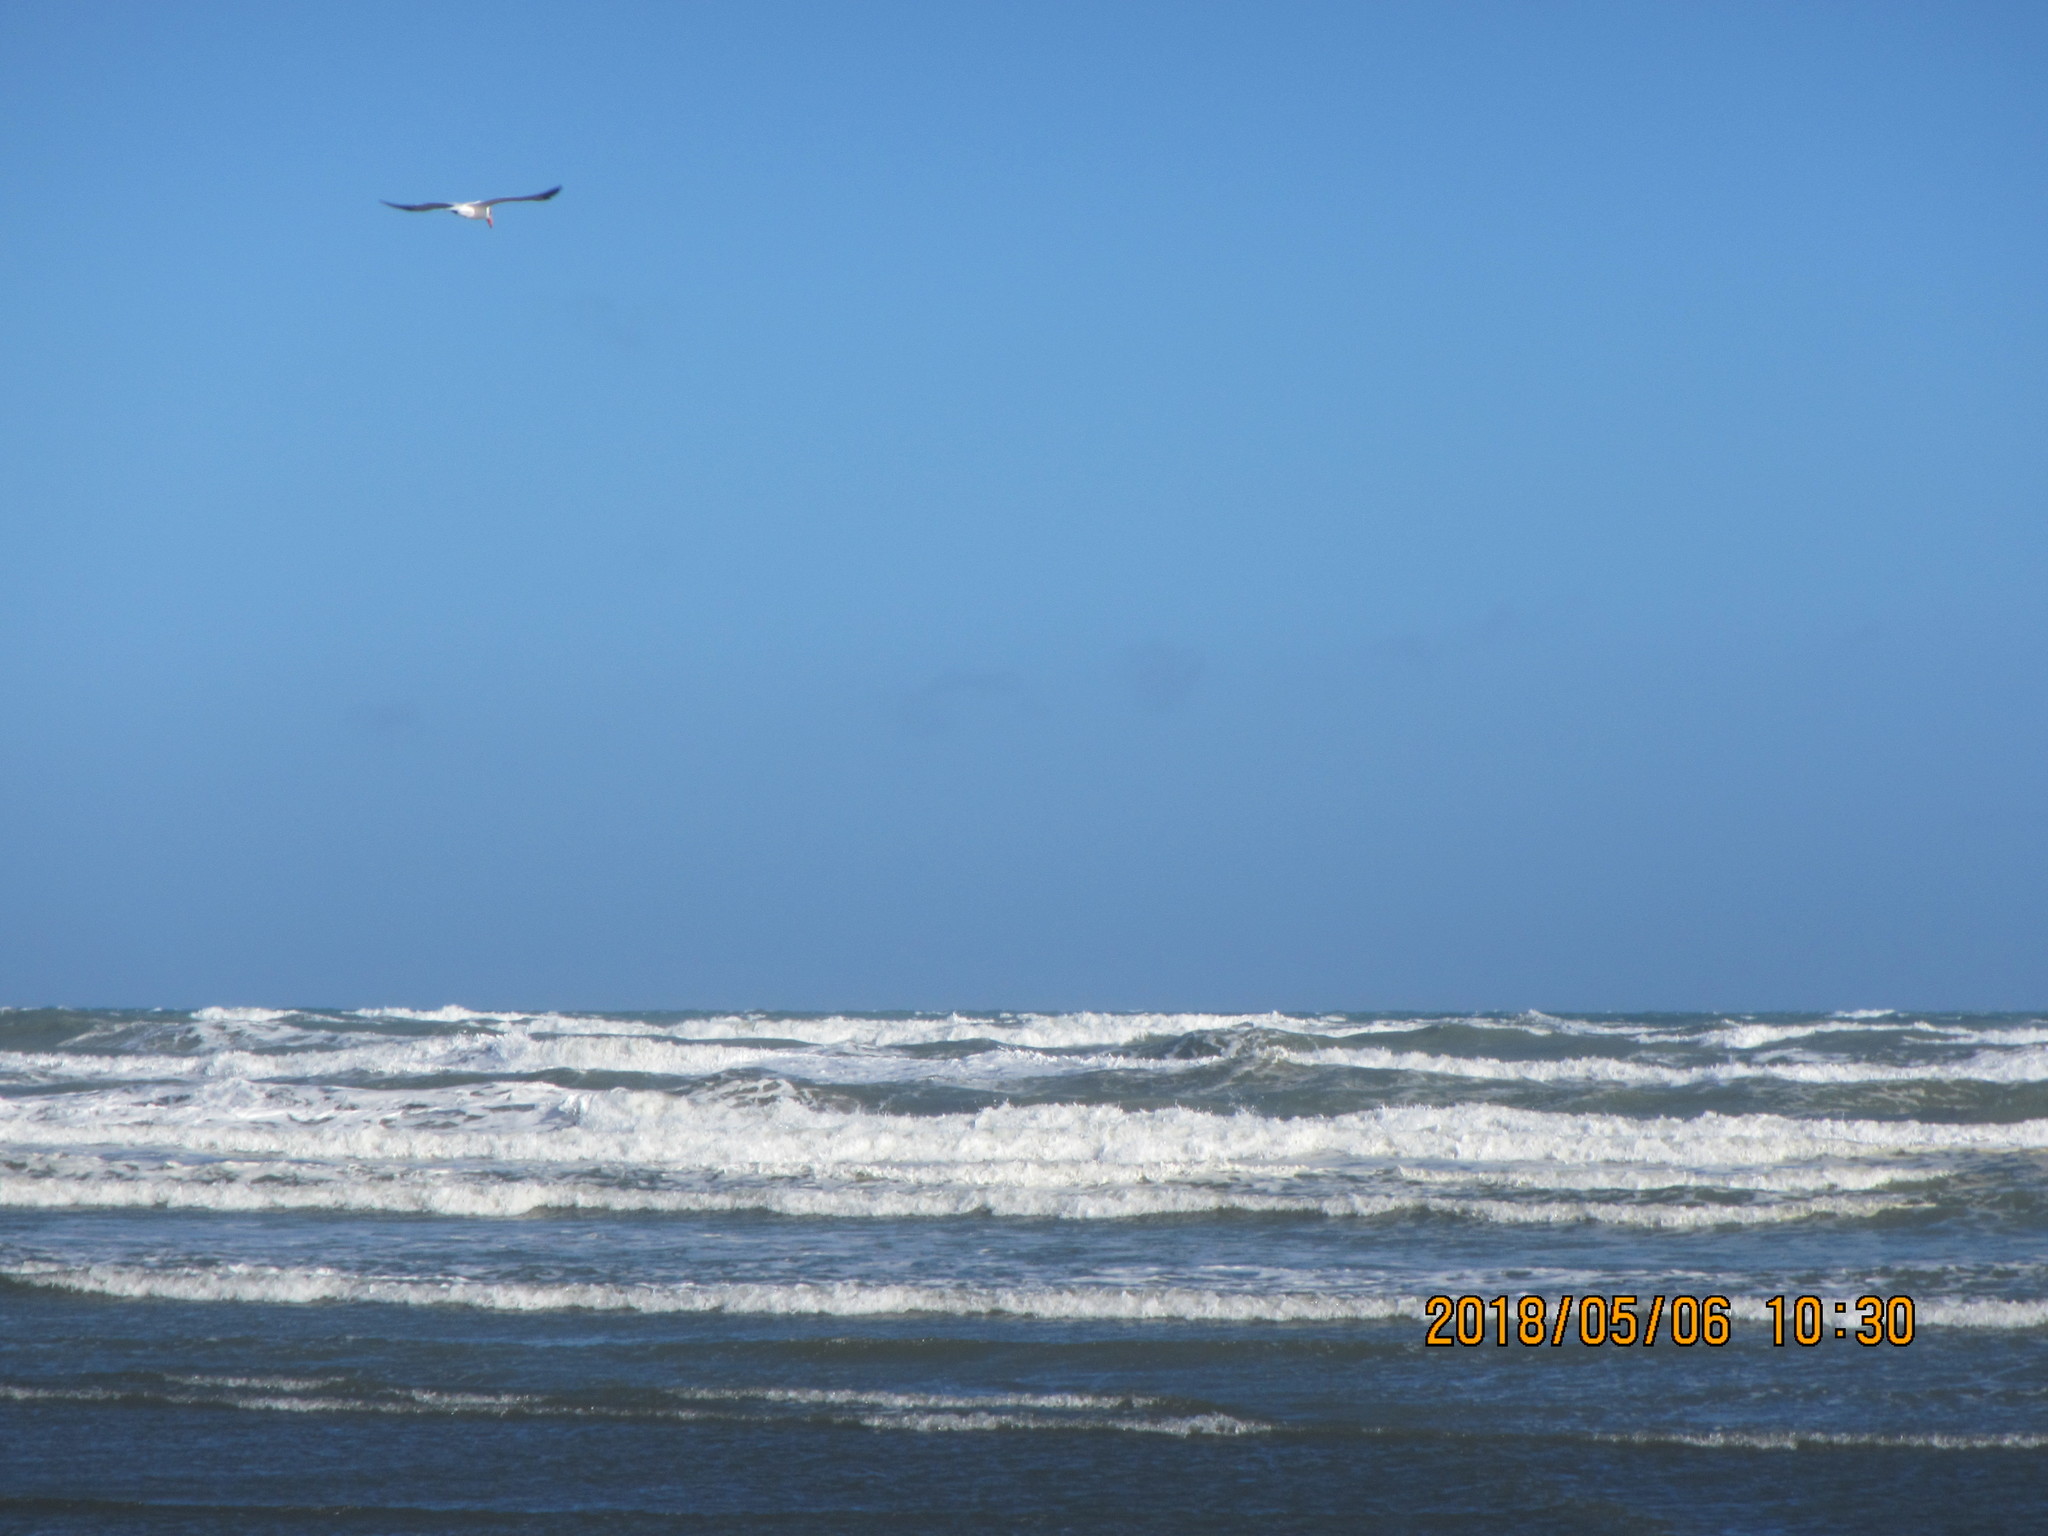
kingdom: Animalia
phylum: Chordata
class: Aves
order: Charadriiformes
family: Laridae
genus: Hydroprogne
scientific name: Hydroprogne caspia
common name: Caspian tern
